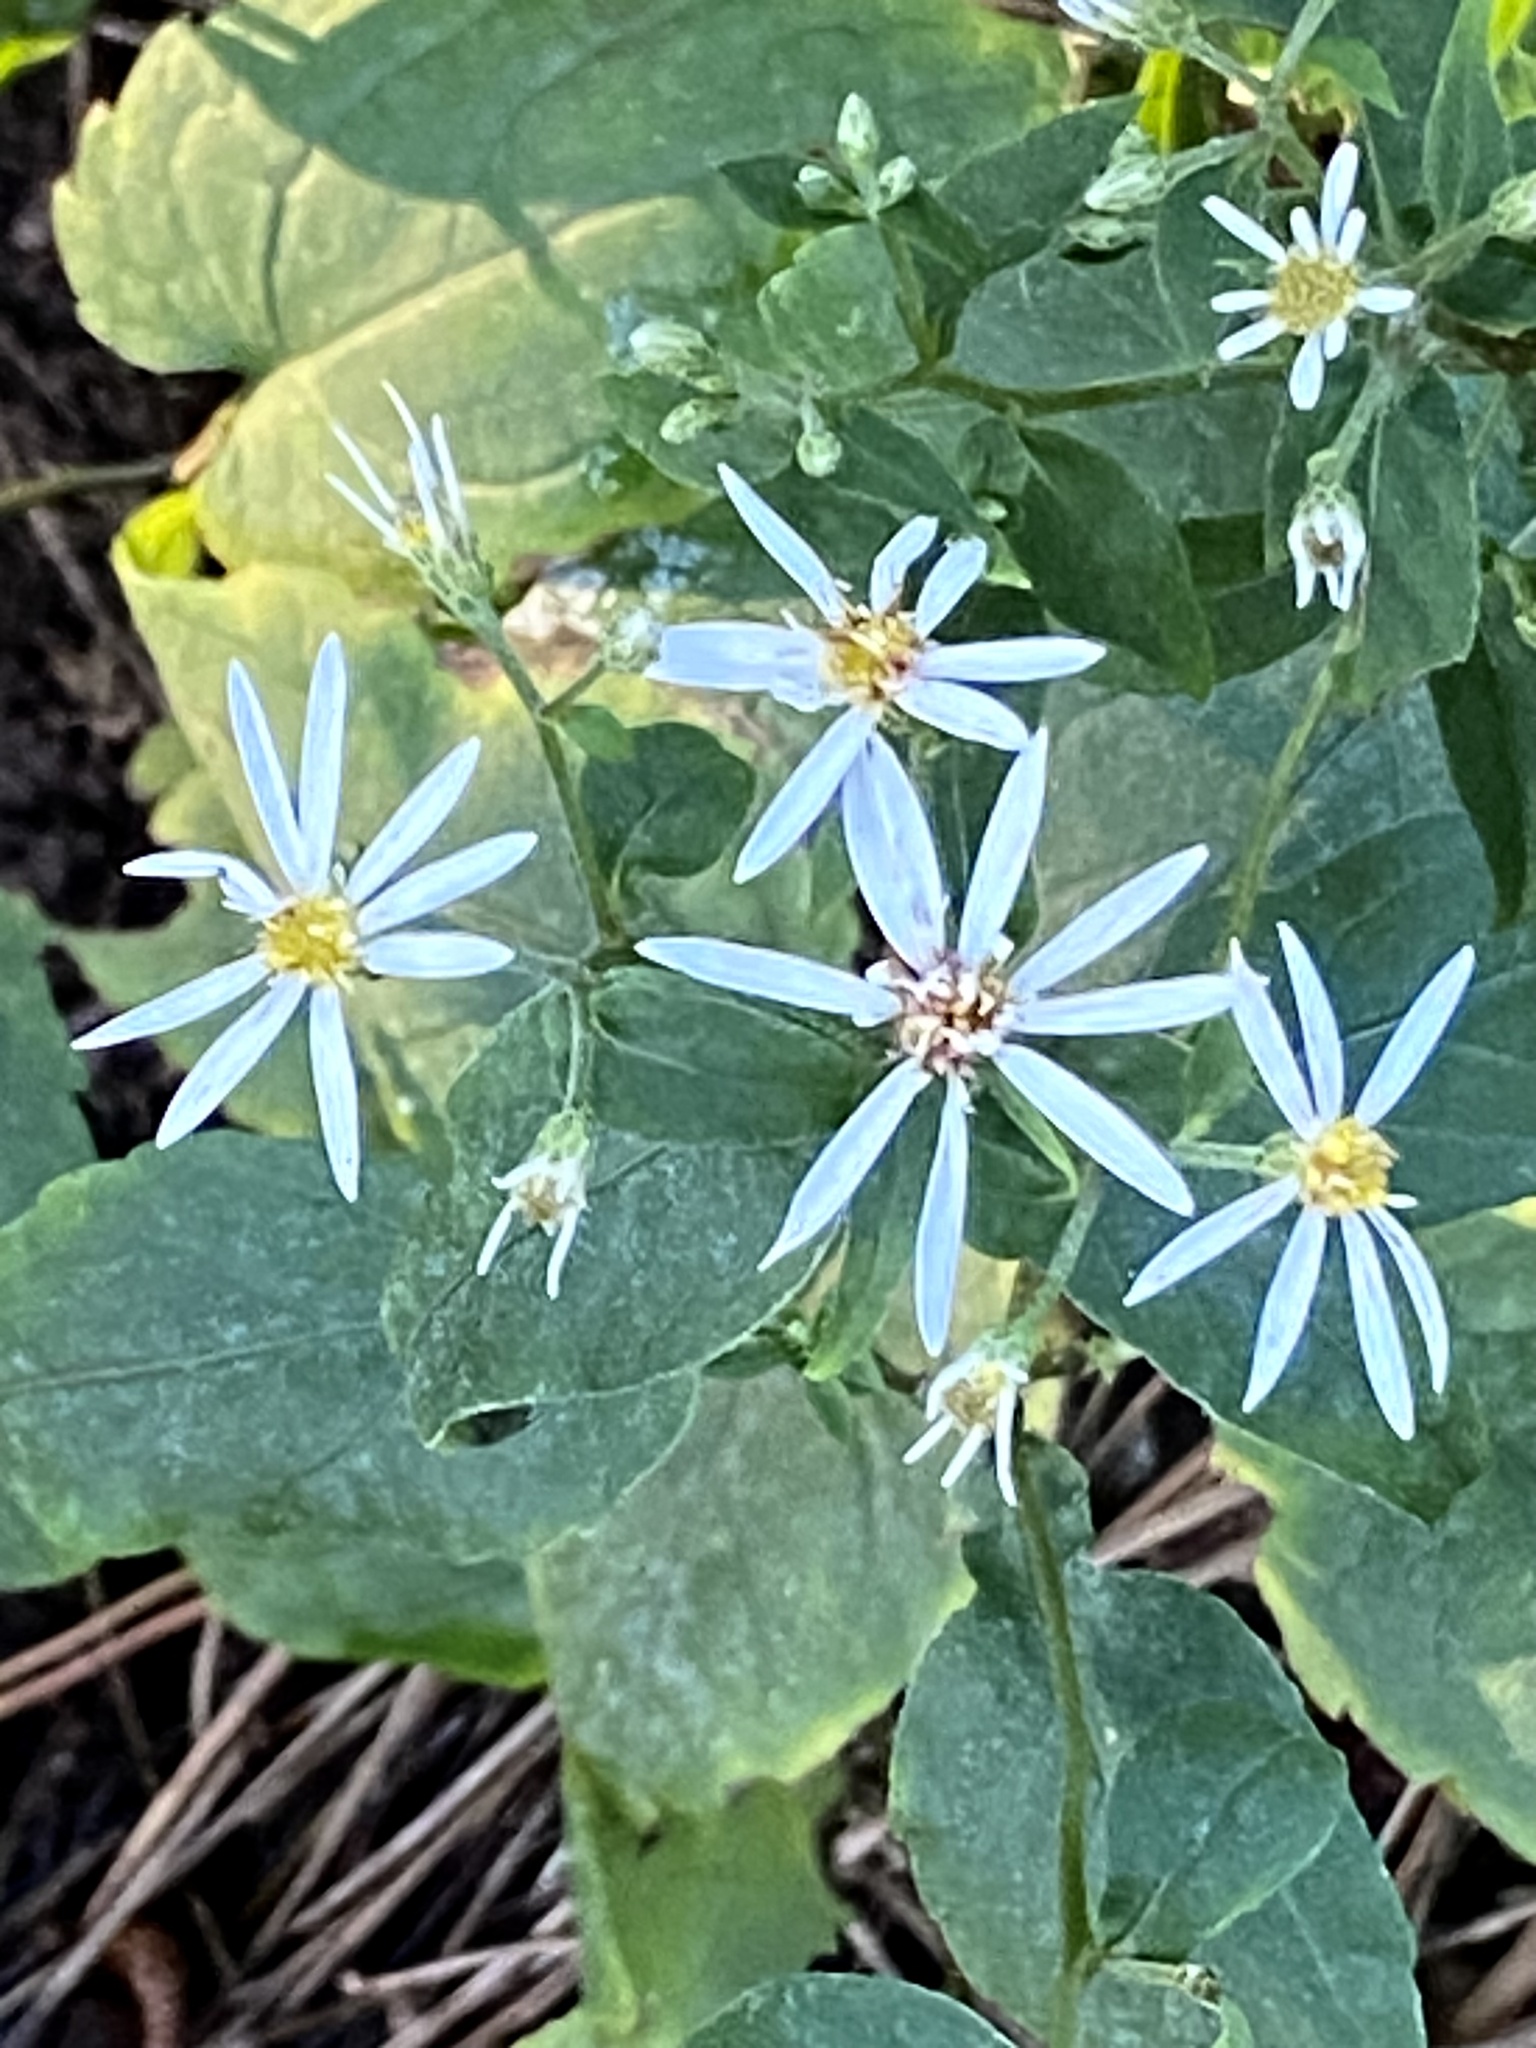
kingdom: Plantae
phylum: Tracheophyta
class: Magnoliopsida
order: Asterales
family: Asteraceae
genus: Eurybia
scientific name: Eurybia divaricata
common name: White wood aster
